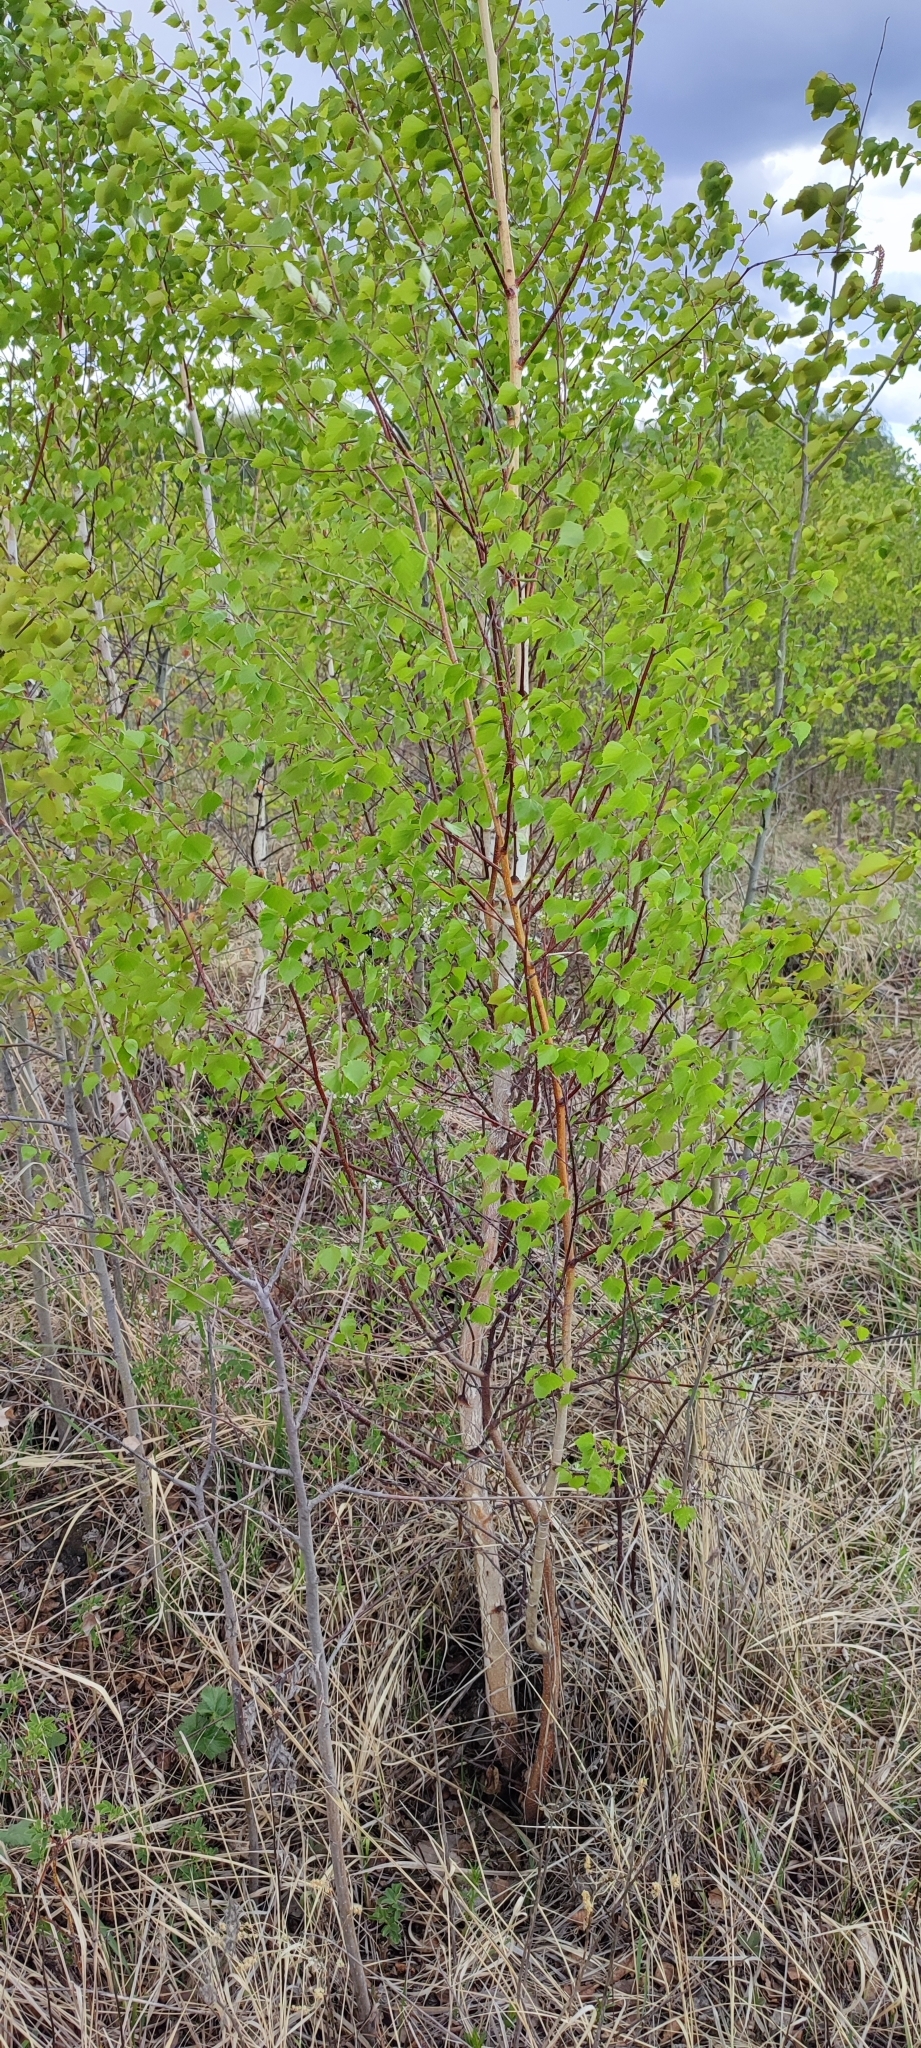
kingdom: Plantae
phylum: Tracheophyta
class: Magnoliopsida
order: Fagales
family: Betulaceae
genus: Betula
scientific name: Betula pendula
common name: Silver birch
